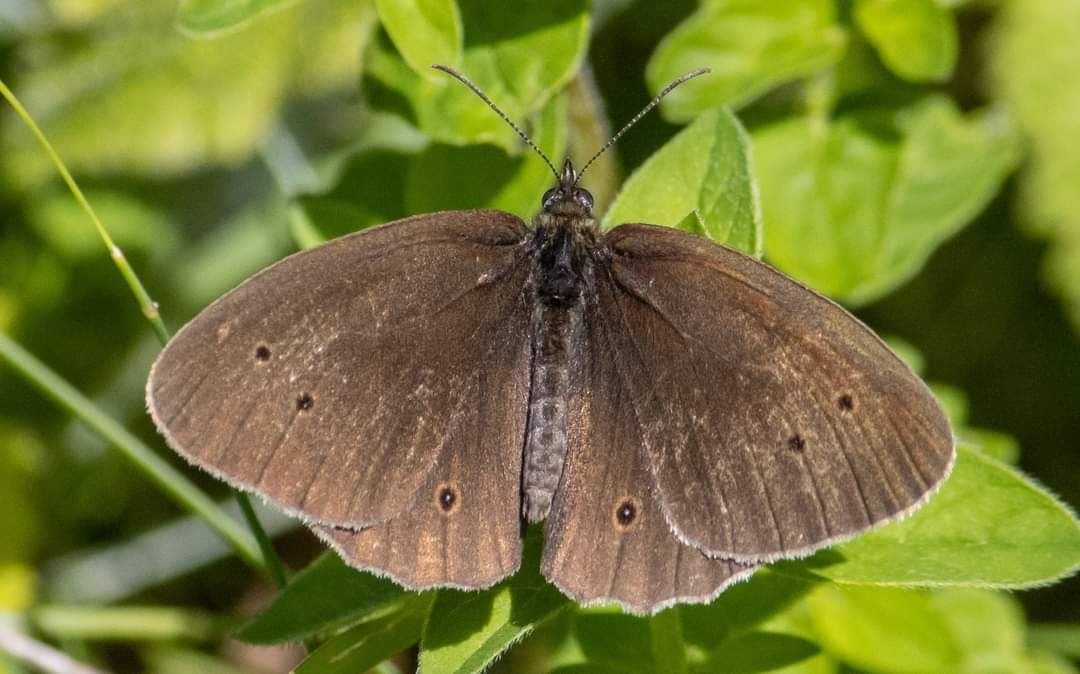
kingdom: Animalia
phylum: Arthropoda
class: Insecta
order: Lepidoptera
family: Nymphalidae
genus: Aphantopus
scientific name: Aphantopus hyperantus
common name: Ringlet
